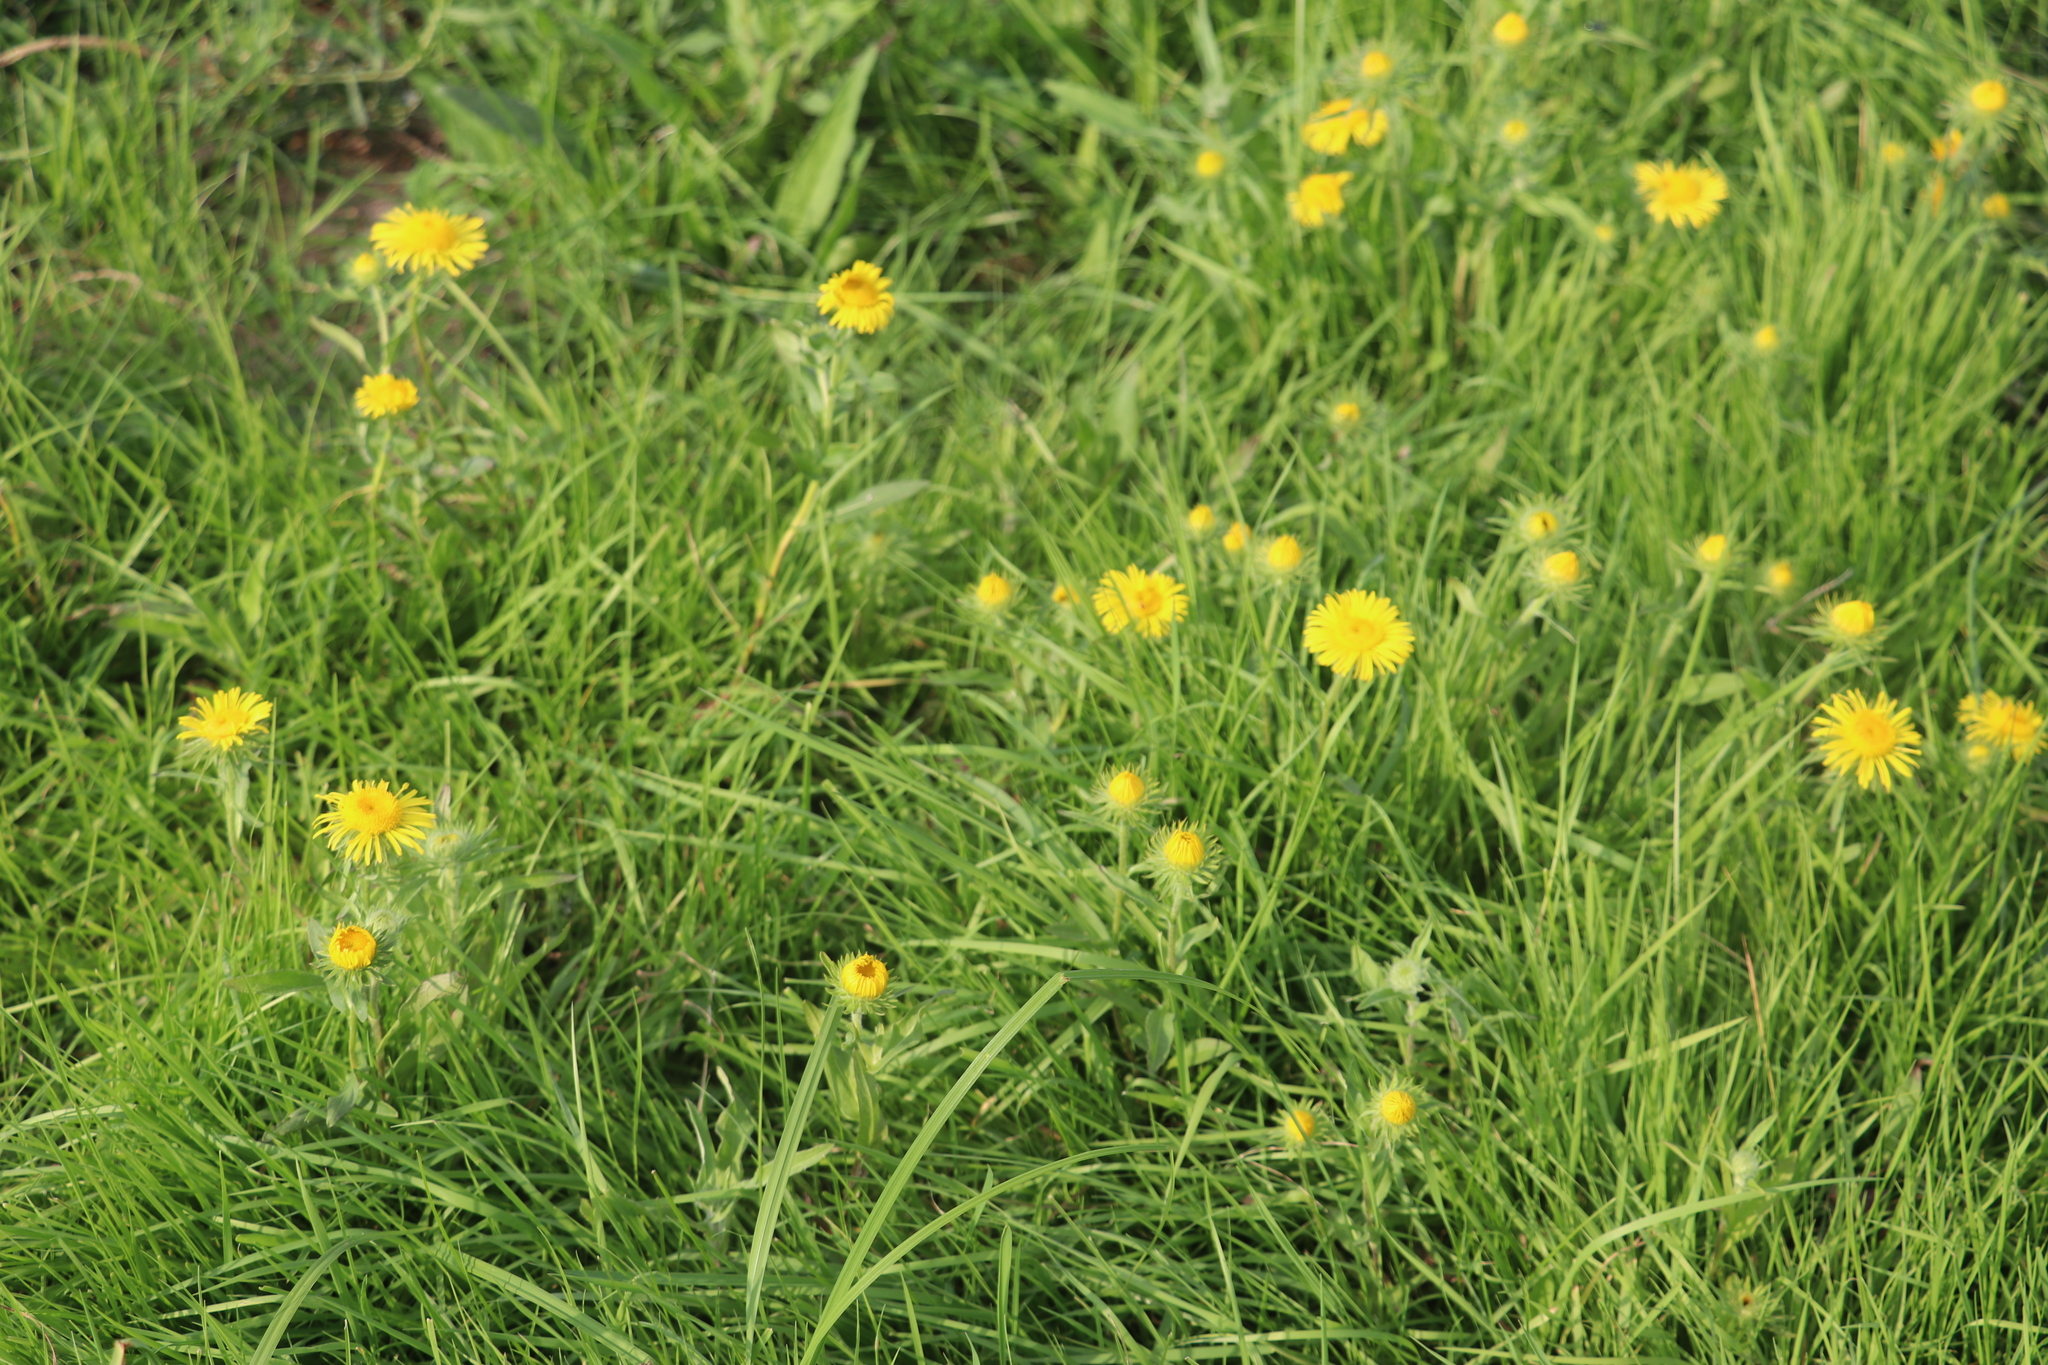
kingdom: Plantae
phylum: Tracheophyta
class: Magnoliopsida
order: Asterales
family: Asteraceae
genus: Pentanema
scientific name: Pentanema britannicum
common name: British elecampane
